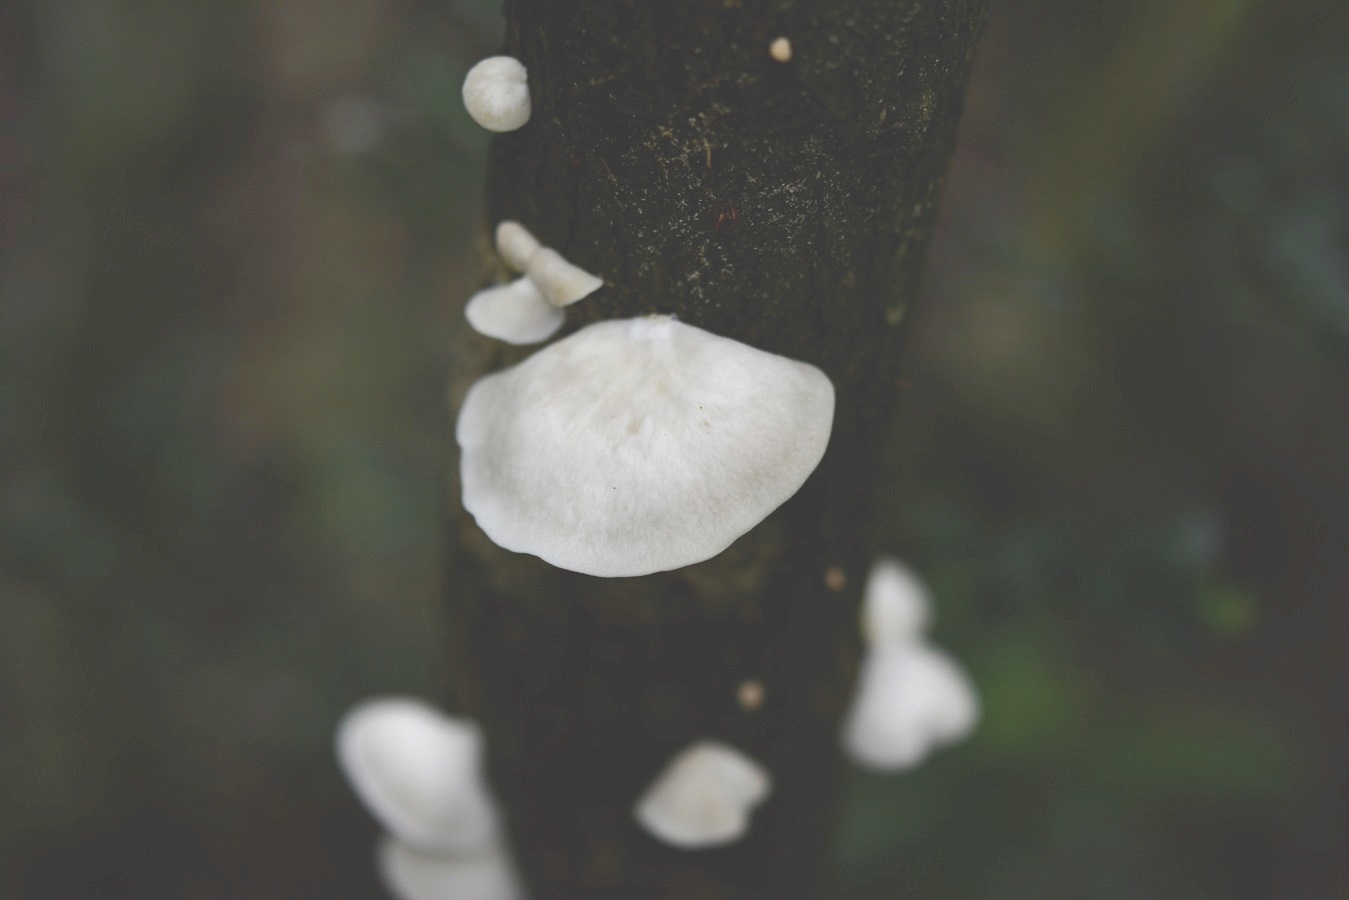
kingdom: Fungi
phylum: Basidiomycota
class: Agaricomycetes
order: Agaricales
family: Pleurotaceae
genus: Pleurotus
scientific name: Pleurotus ostreatus
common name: Oyster mushroom
